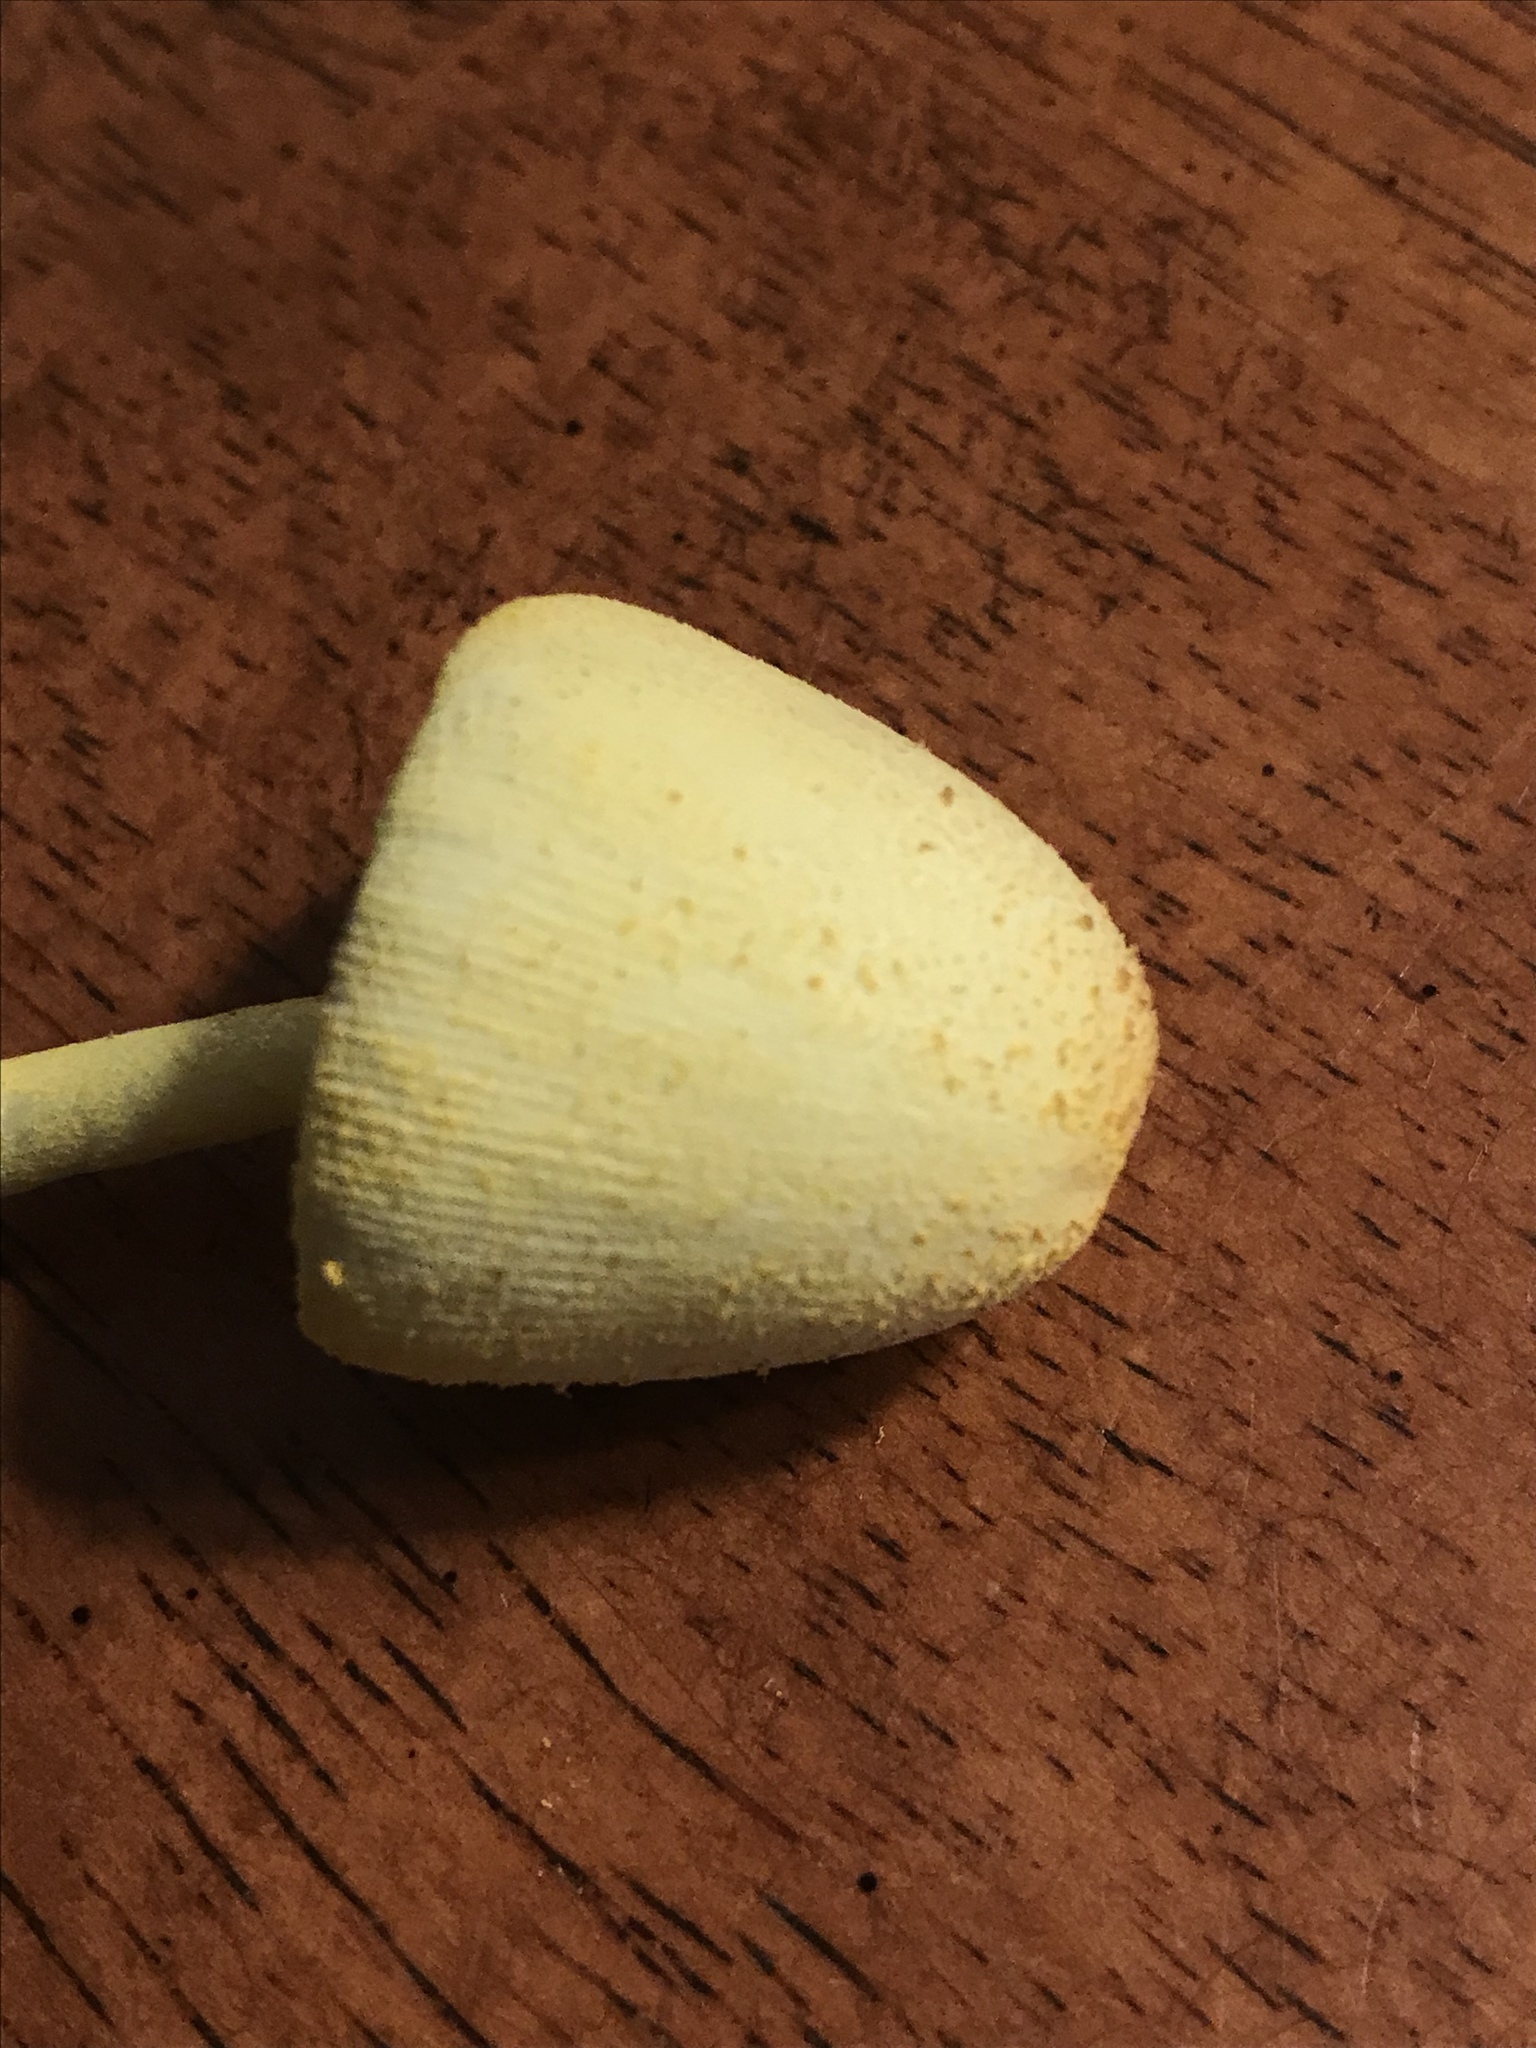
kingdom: Fungi
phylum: Basidiomycota
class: Agaricomycetes
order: Agaricales
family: Agaricaceae
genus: Leucocoprinus
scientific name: Leucocoprinus birnbaumii
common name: Plantpot dapperling
